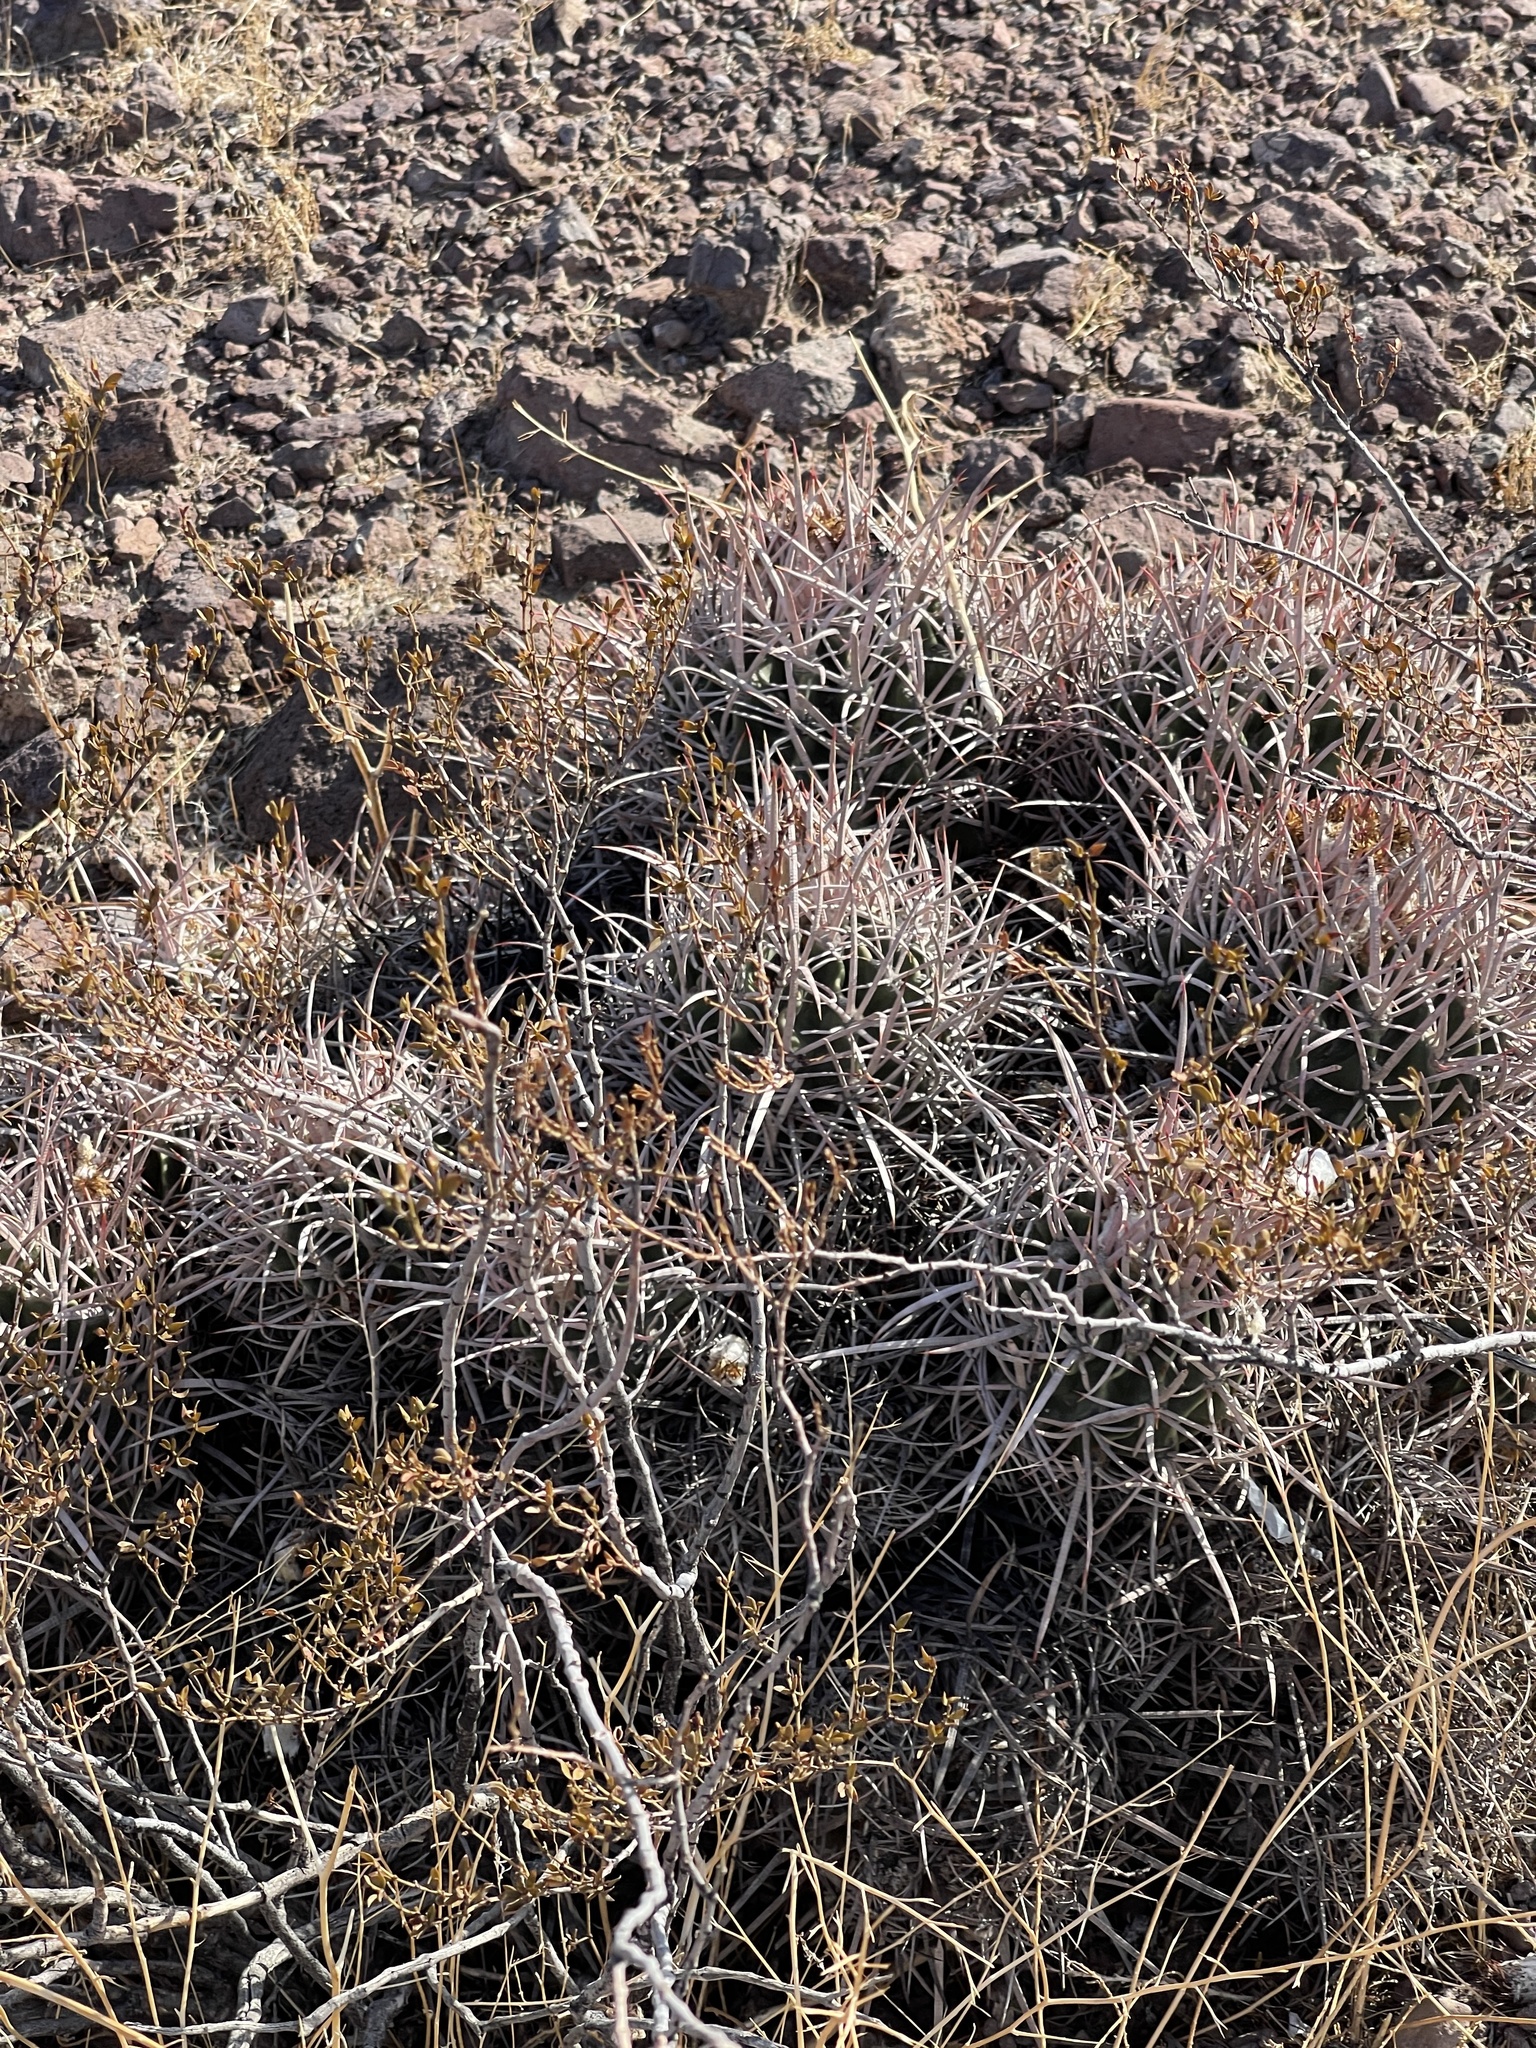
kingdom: Plantae
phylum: Tracheophyta
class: Magnoliopsida
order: Caryophyllales
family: Cactaceae
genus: Echinocactus
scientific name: Echinocactus polycephalus
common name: Cottontop cactus
